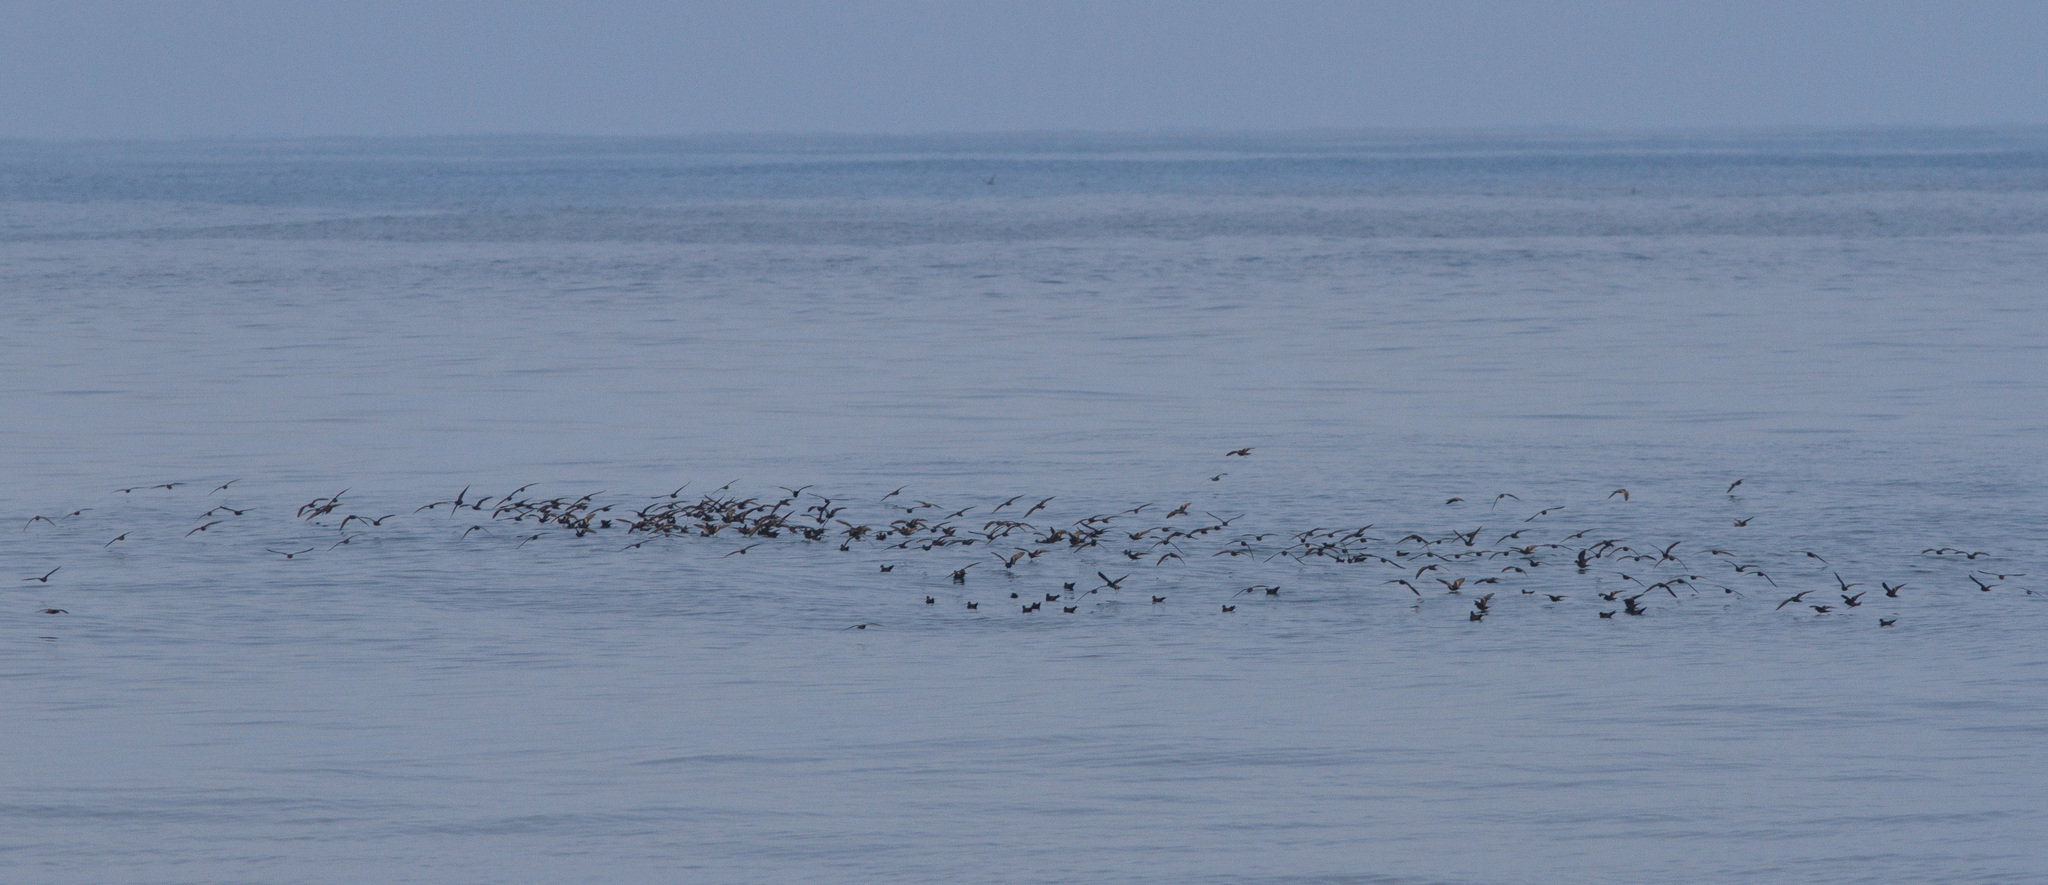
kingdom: Animalia
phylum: Chordata
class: Aves
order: Procellariiformes
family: Hydrobatidae
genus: Hydrobates
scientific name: Hydrobates homochroa
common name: Ashy storm petrel
